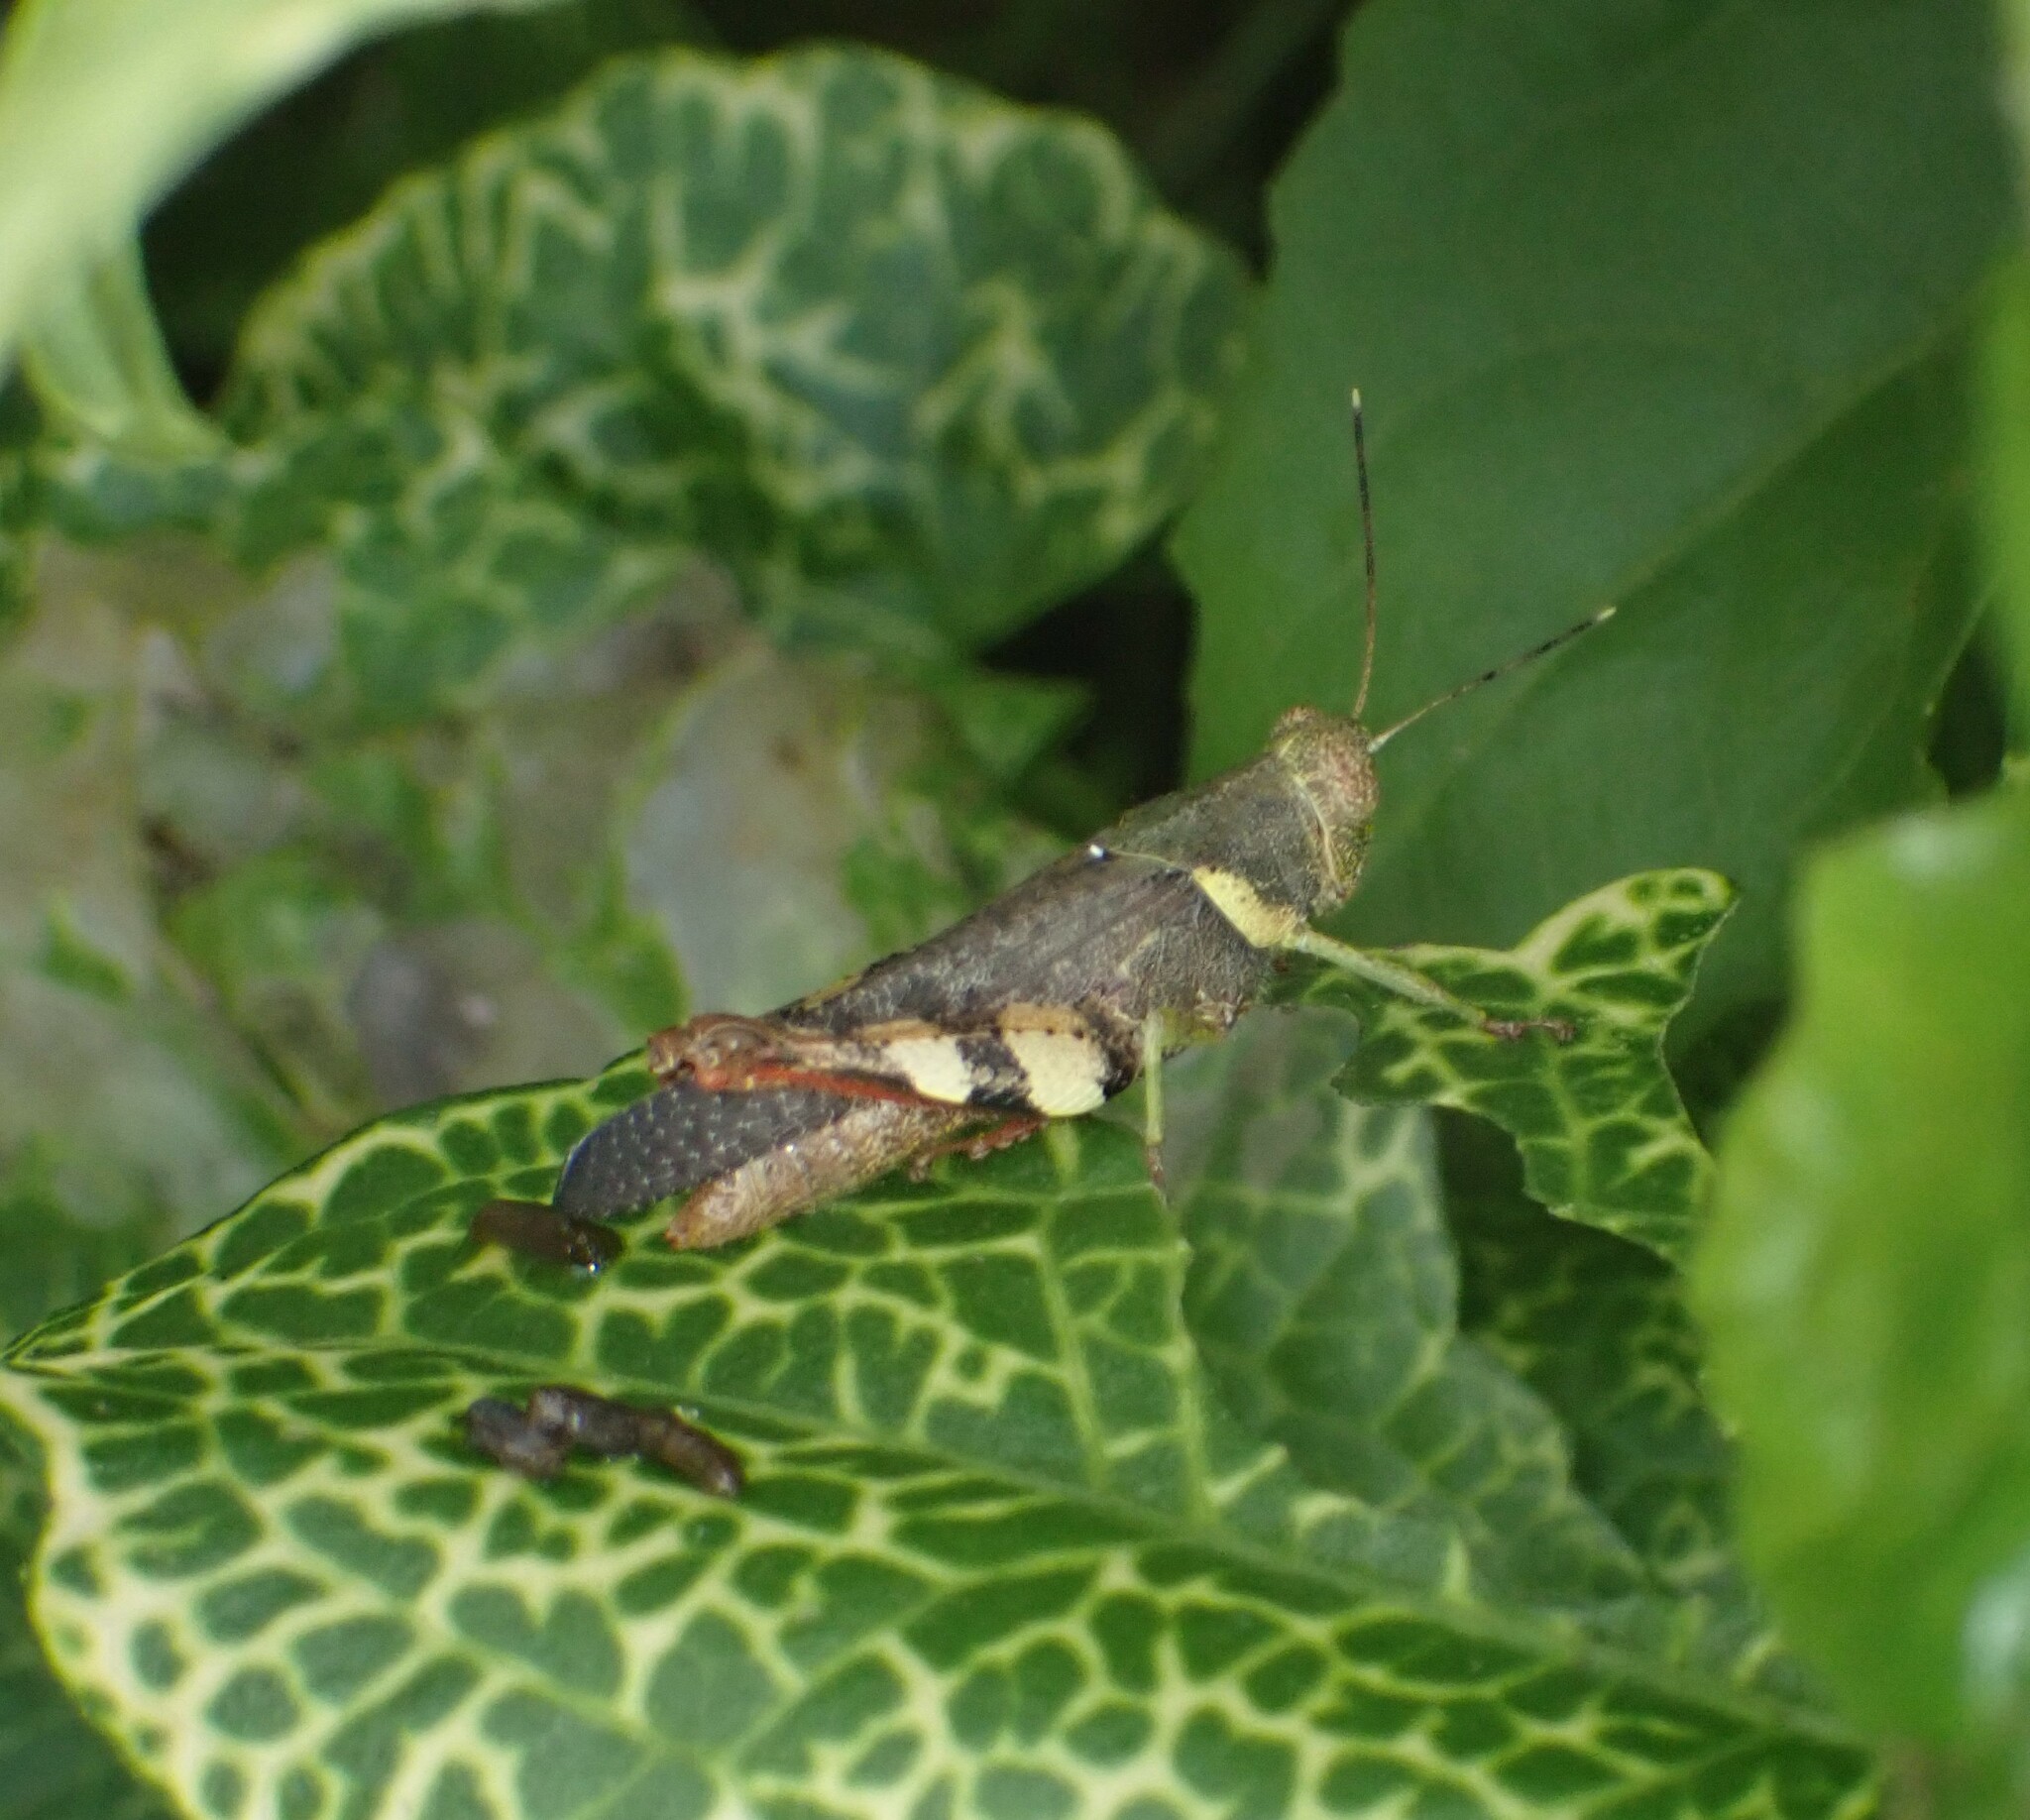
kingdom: Animalia
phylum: Arthropoda
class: Insecta
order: Orthoptera
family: Acrididae
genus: Apalacris
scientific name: Apalacris varicornis
